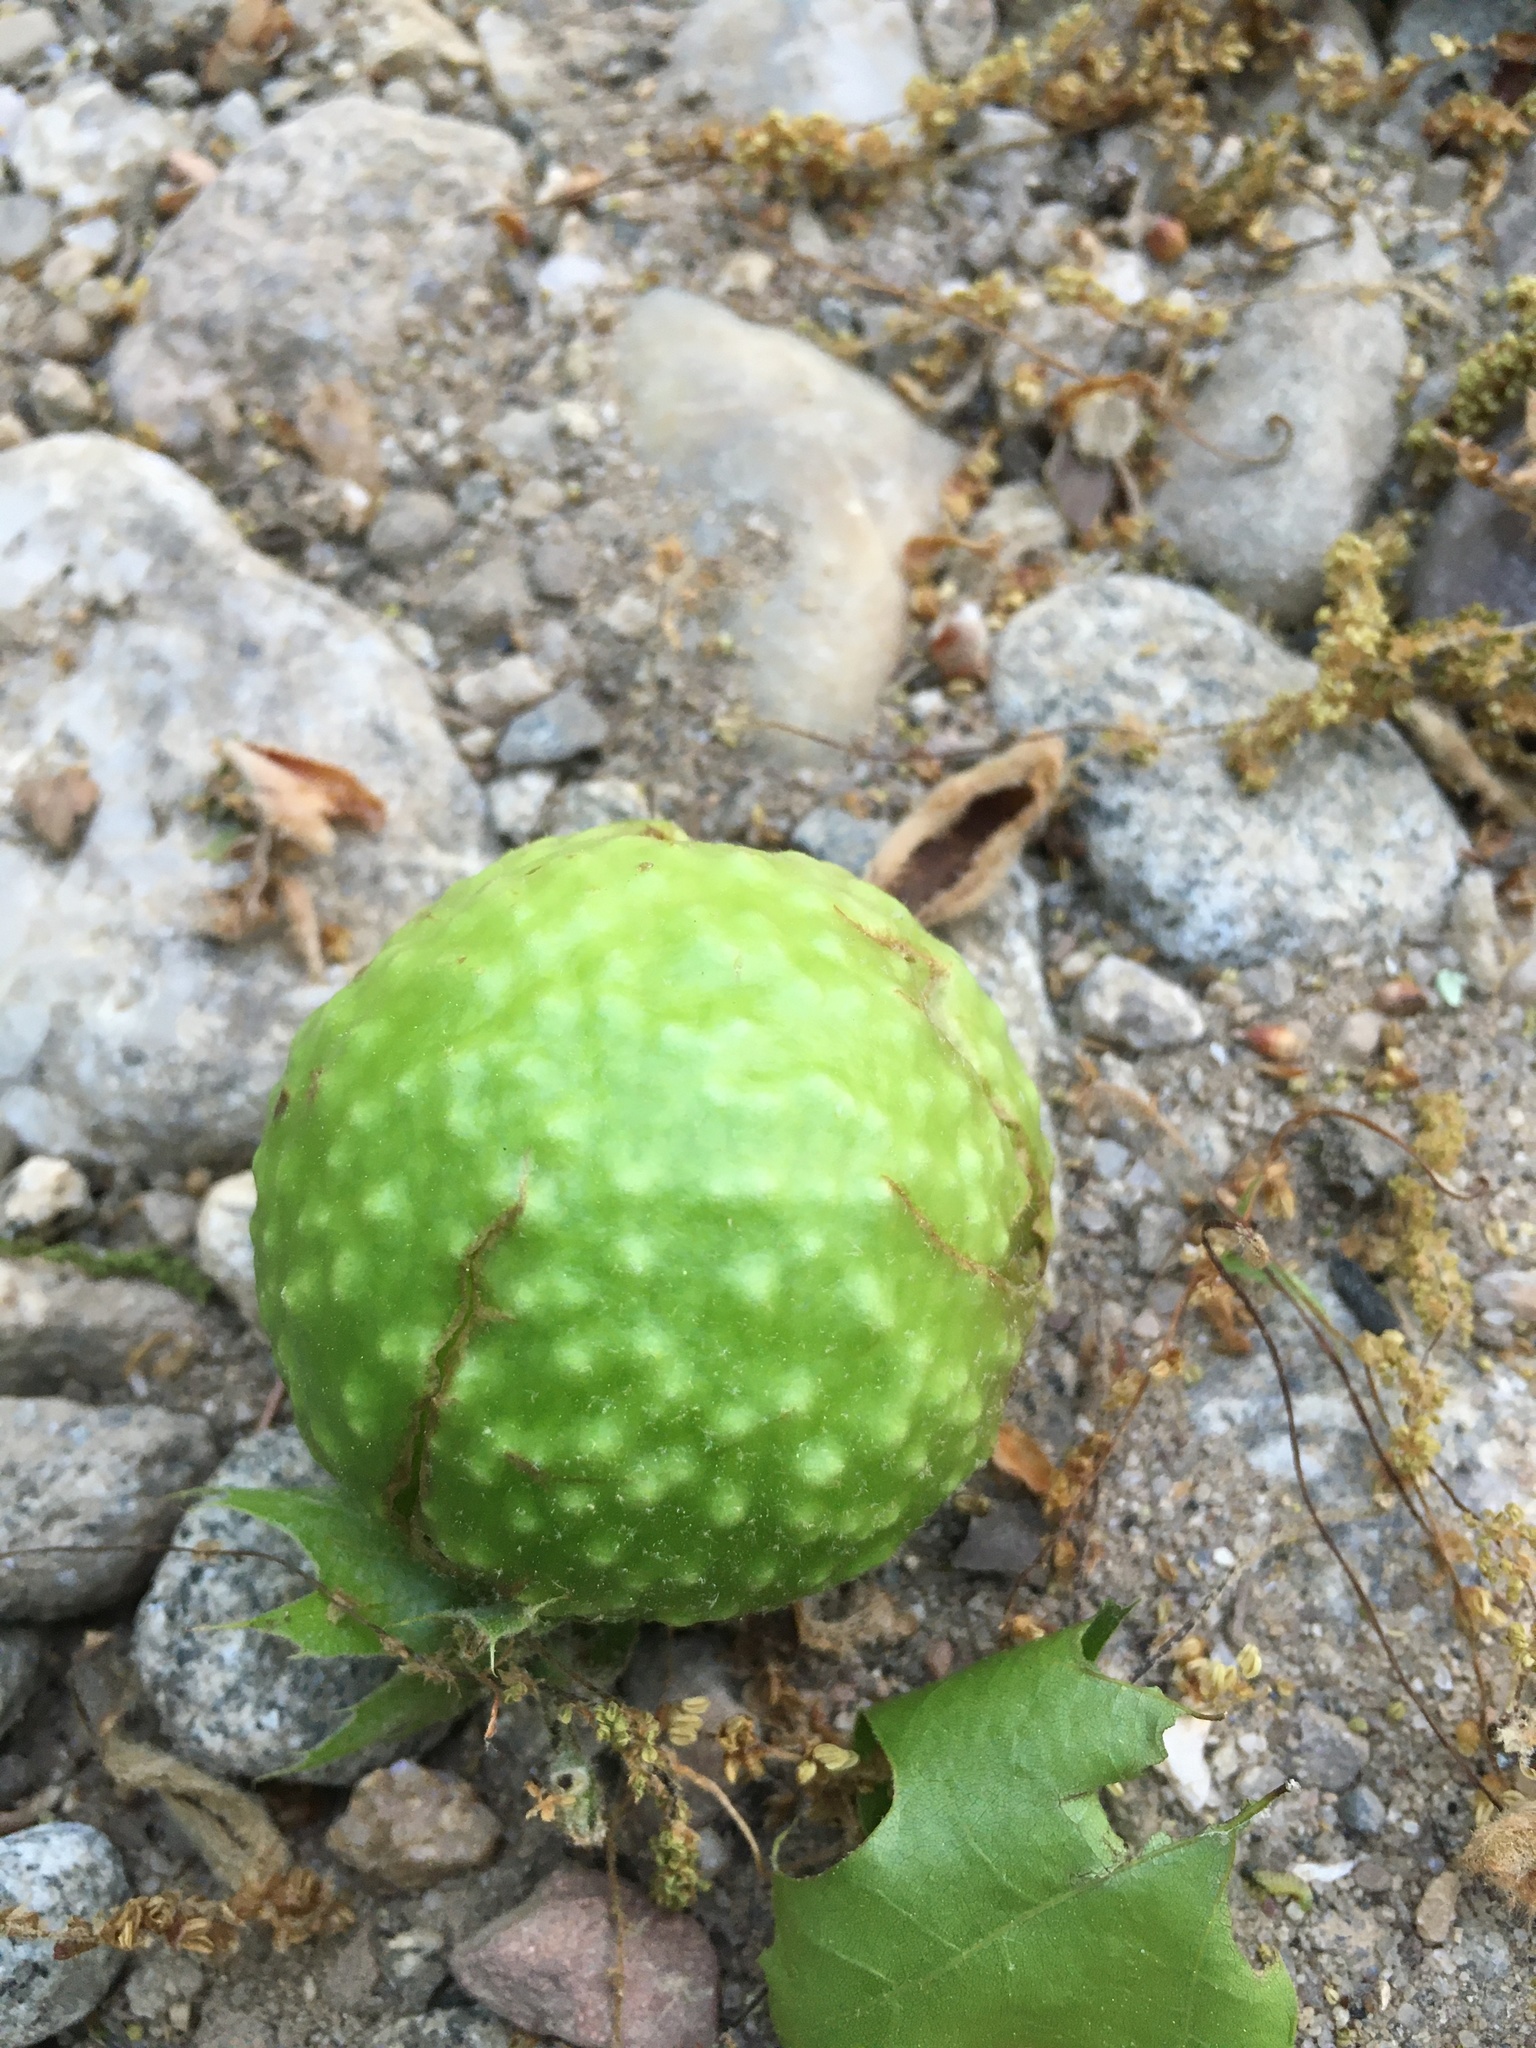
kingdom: Animalia
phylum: Arthropoda
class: Insecta
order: Hymenoptera
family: Cynipidae
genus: Amphibolips
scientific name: Amphibolips
